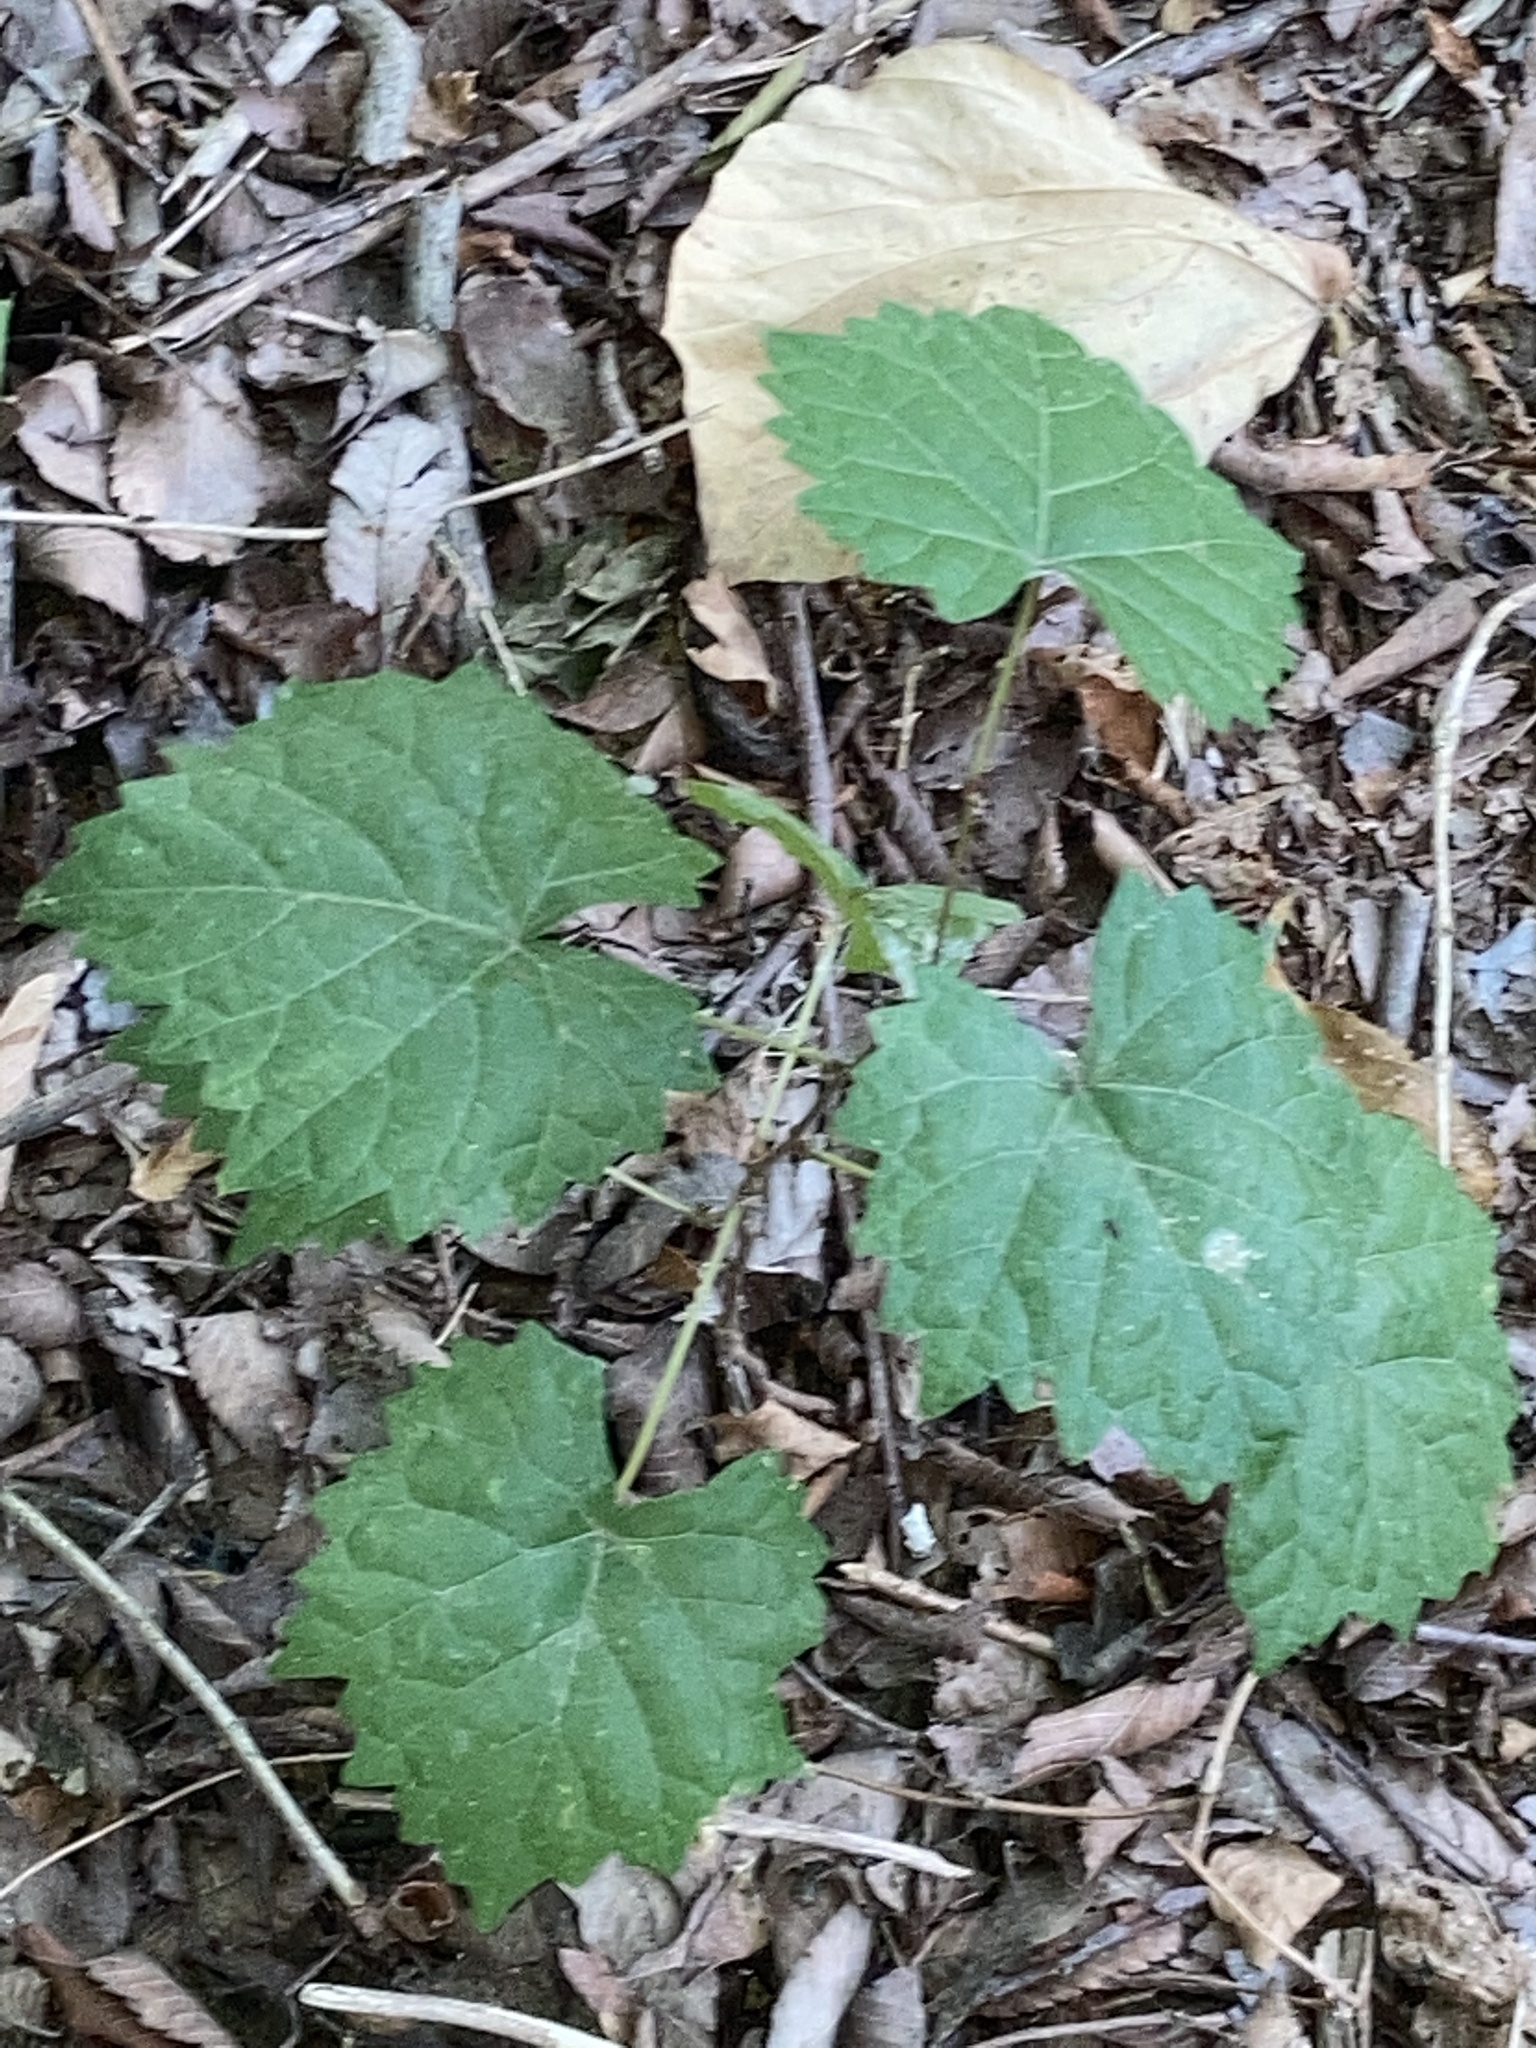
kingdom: Plantae
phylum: Tracheophyta
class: Magnoliopsida
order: Vitales
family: Vitaceae
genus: Vitis
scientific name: Vitis rotundifolia
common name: Muscadine grape
